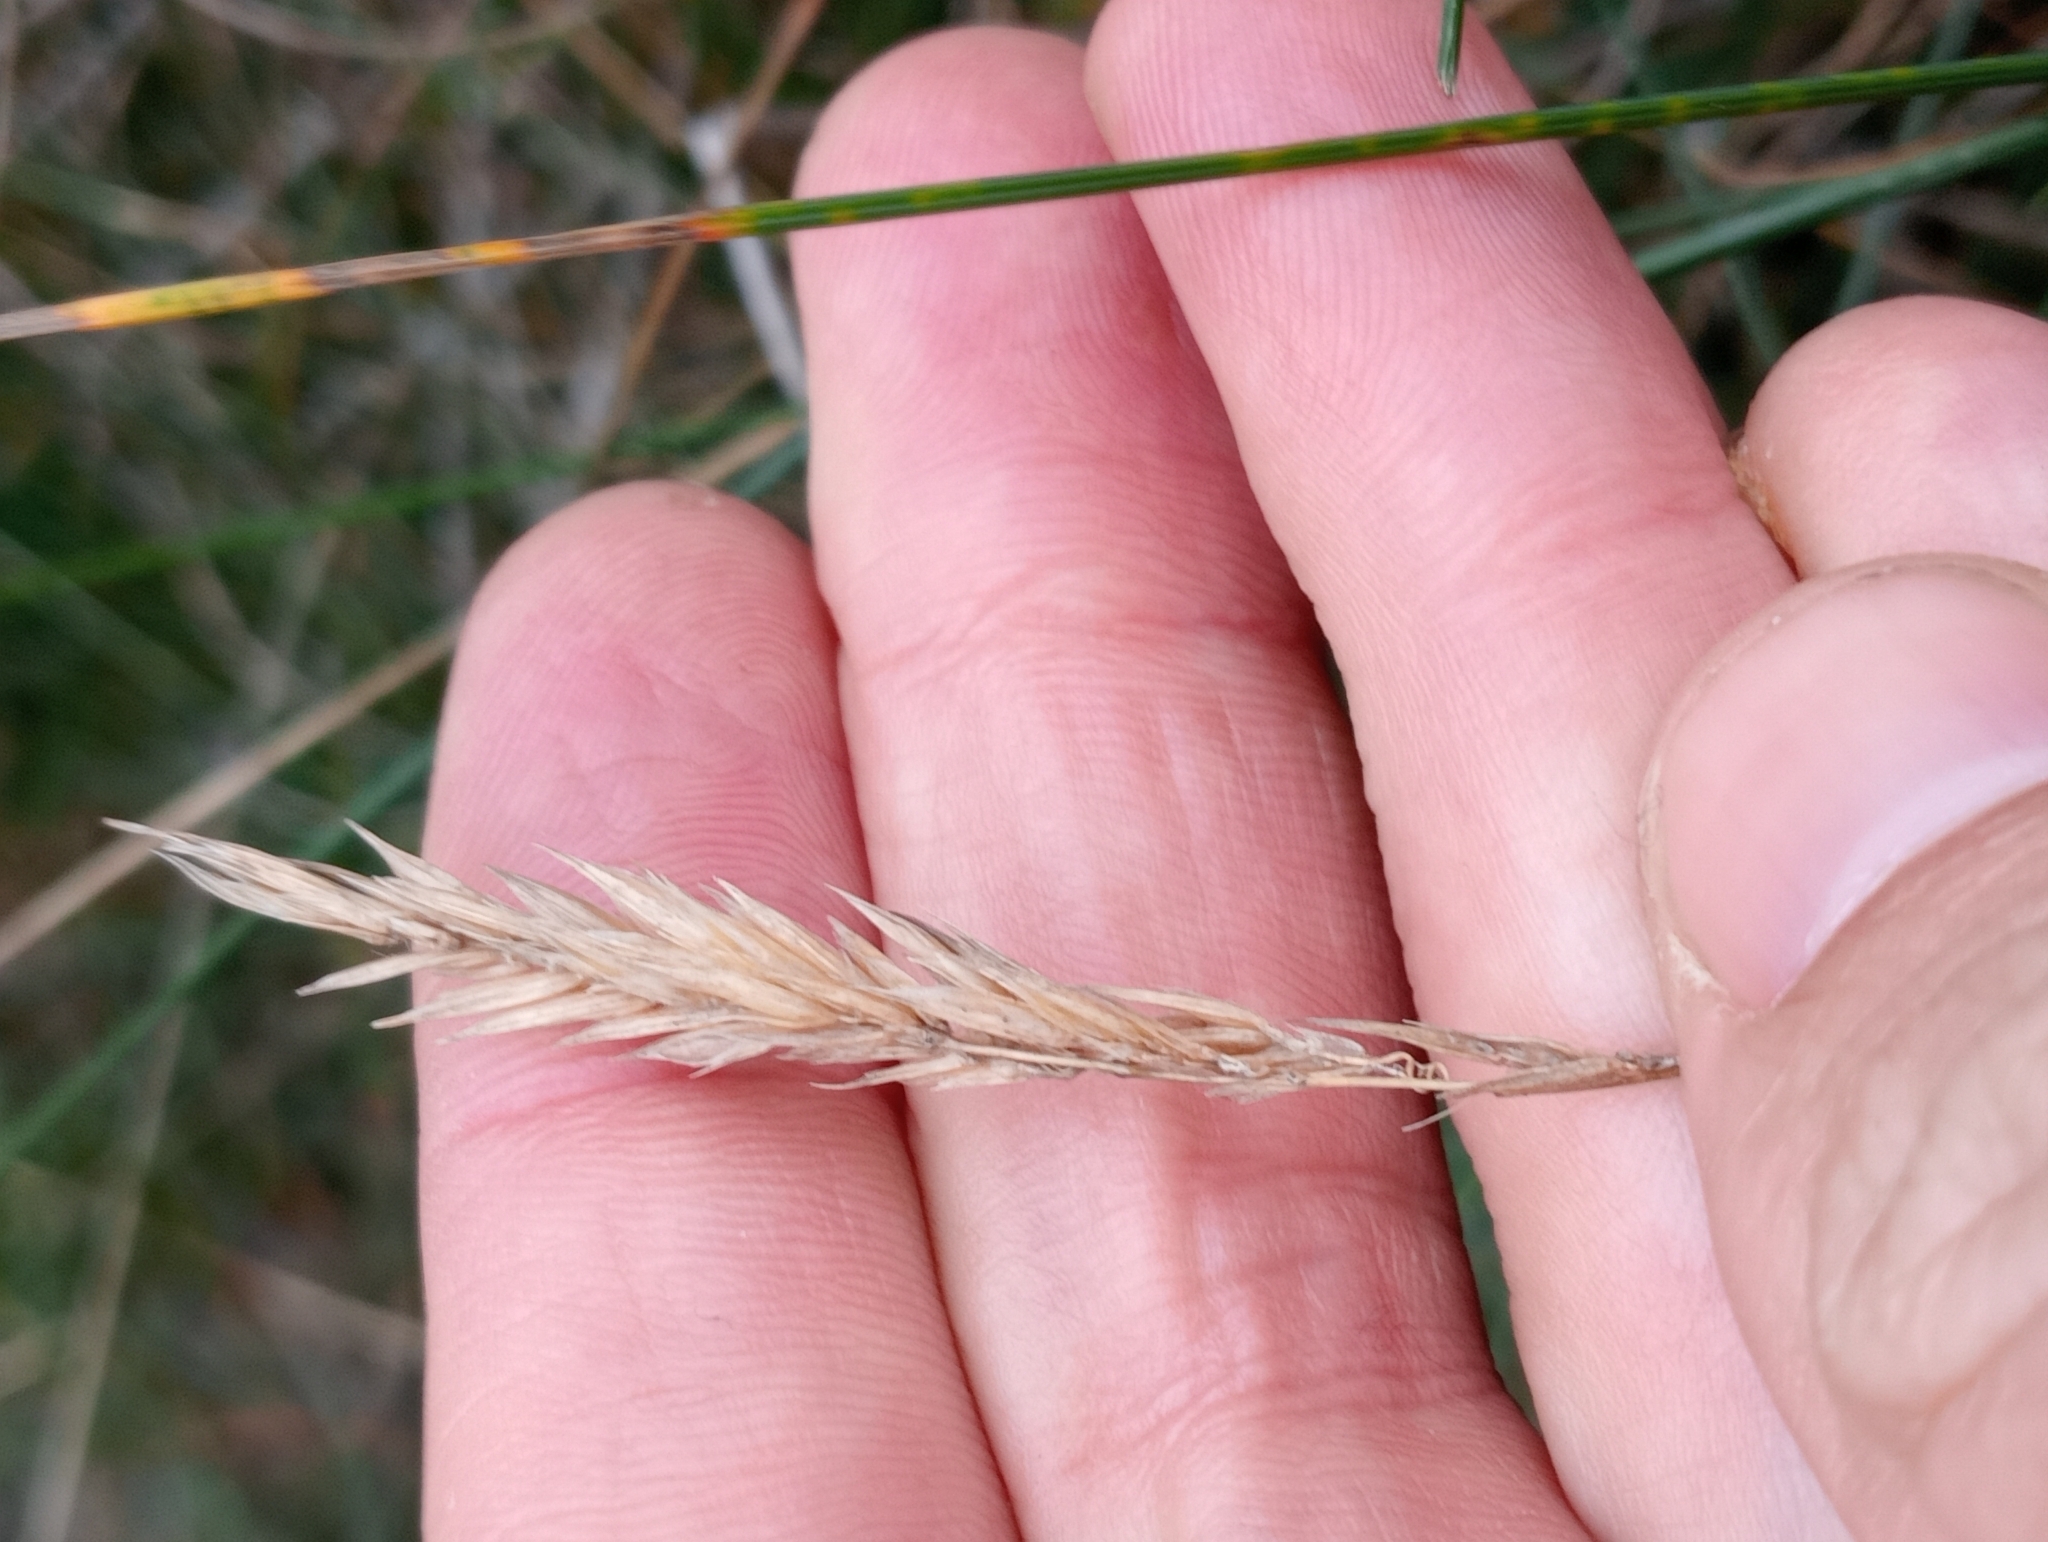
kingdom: Plantae
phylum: Tracheophyta
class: Liliopsida
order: Poales
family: Poaceae
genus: Anthoxanthum
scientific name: Anthoxanthum odoratum
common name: Sweet vernalgrass
